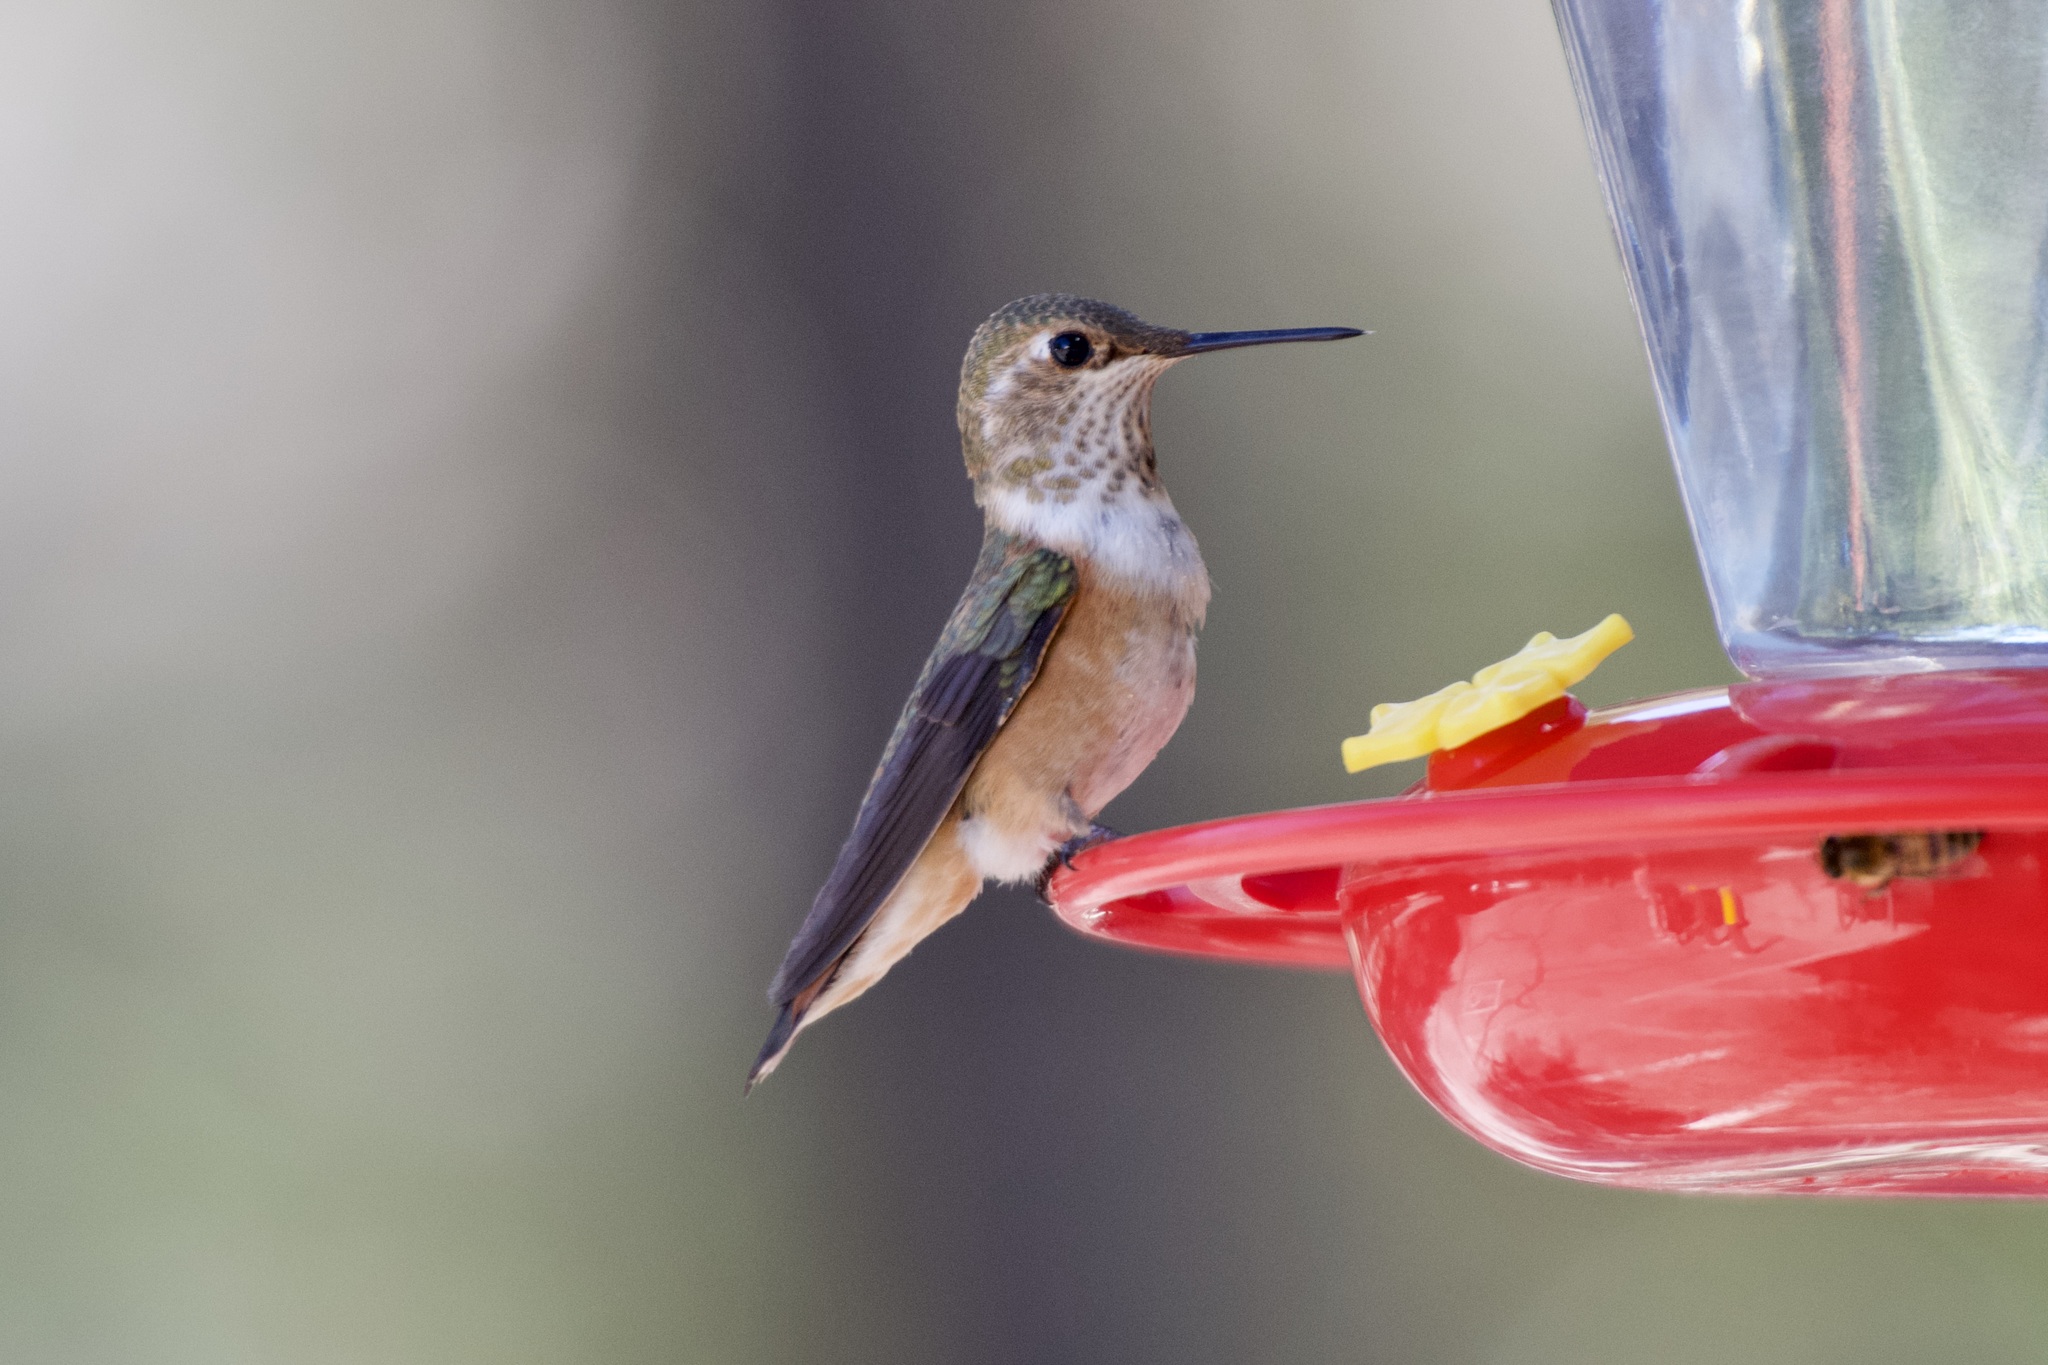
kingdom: Animalia
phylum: Chordata
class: Aves
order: Apodiformes
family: Trochilidae
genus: Selasphorus
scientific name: Selasphorus rufus
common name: Rufous hummingbird
